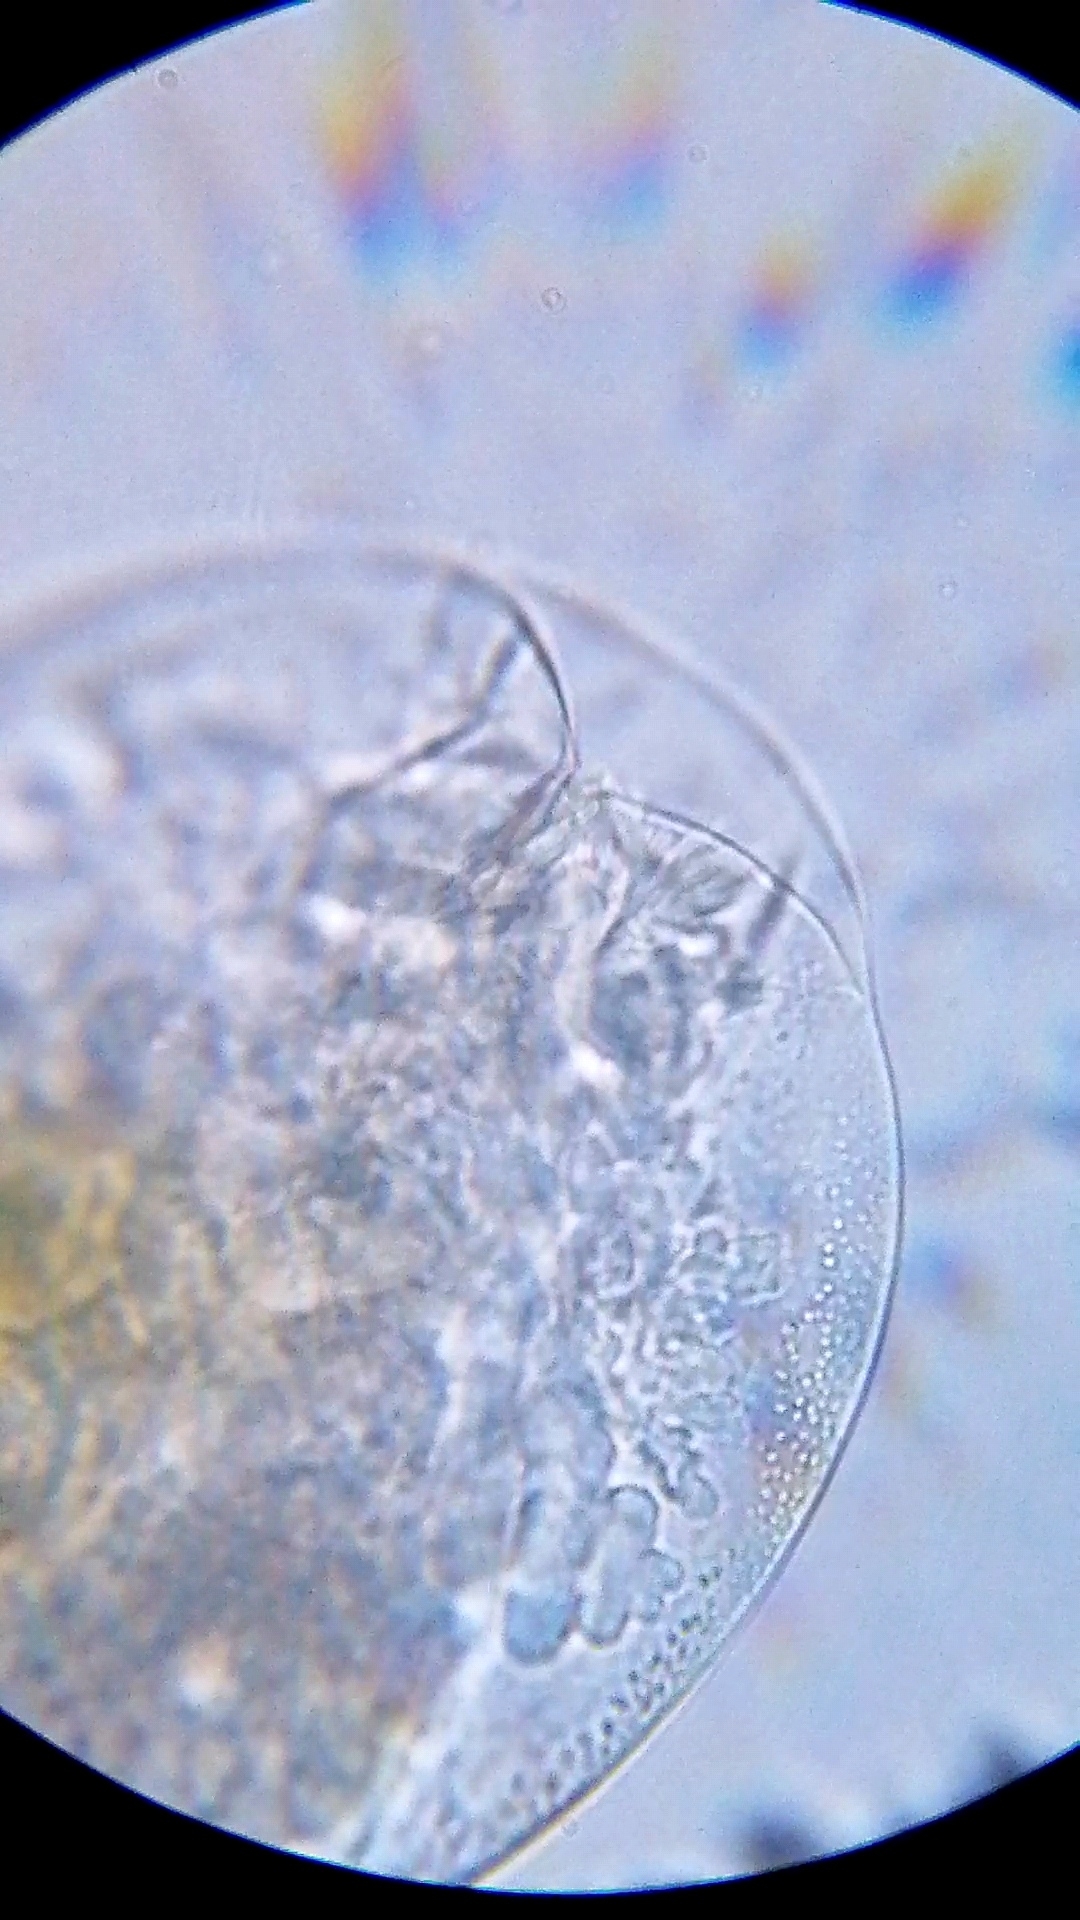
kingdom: Animalia
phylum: Rotifera
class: Eurotatoria
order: Flosculariaceae
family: Testudinellidae
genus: Testudinella
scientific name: Testudinella patina
